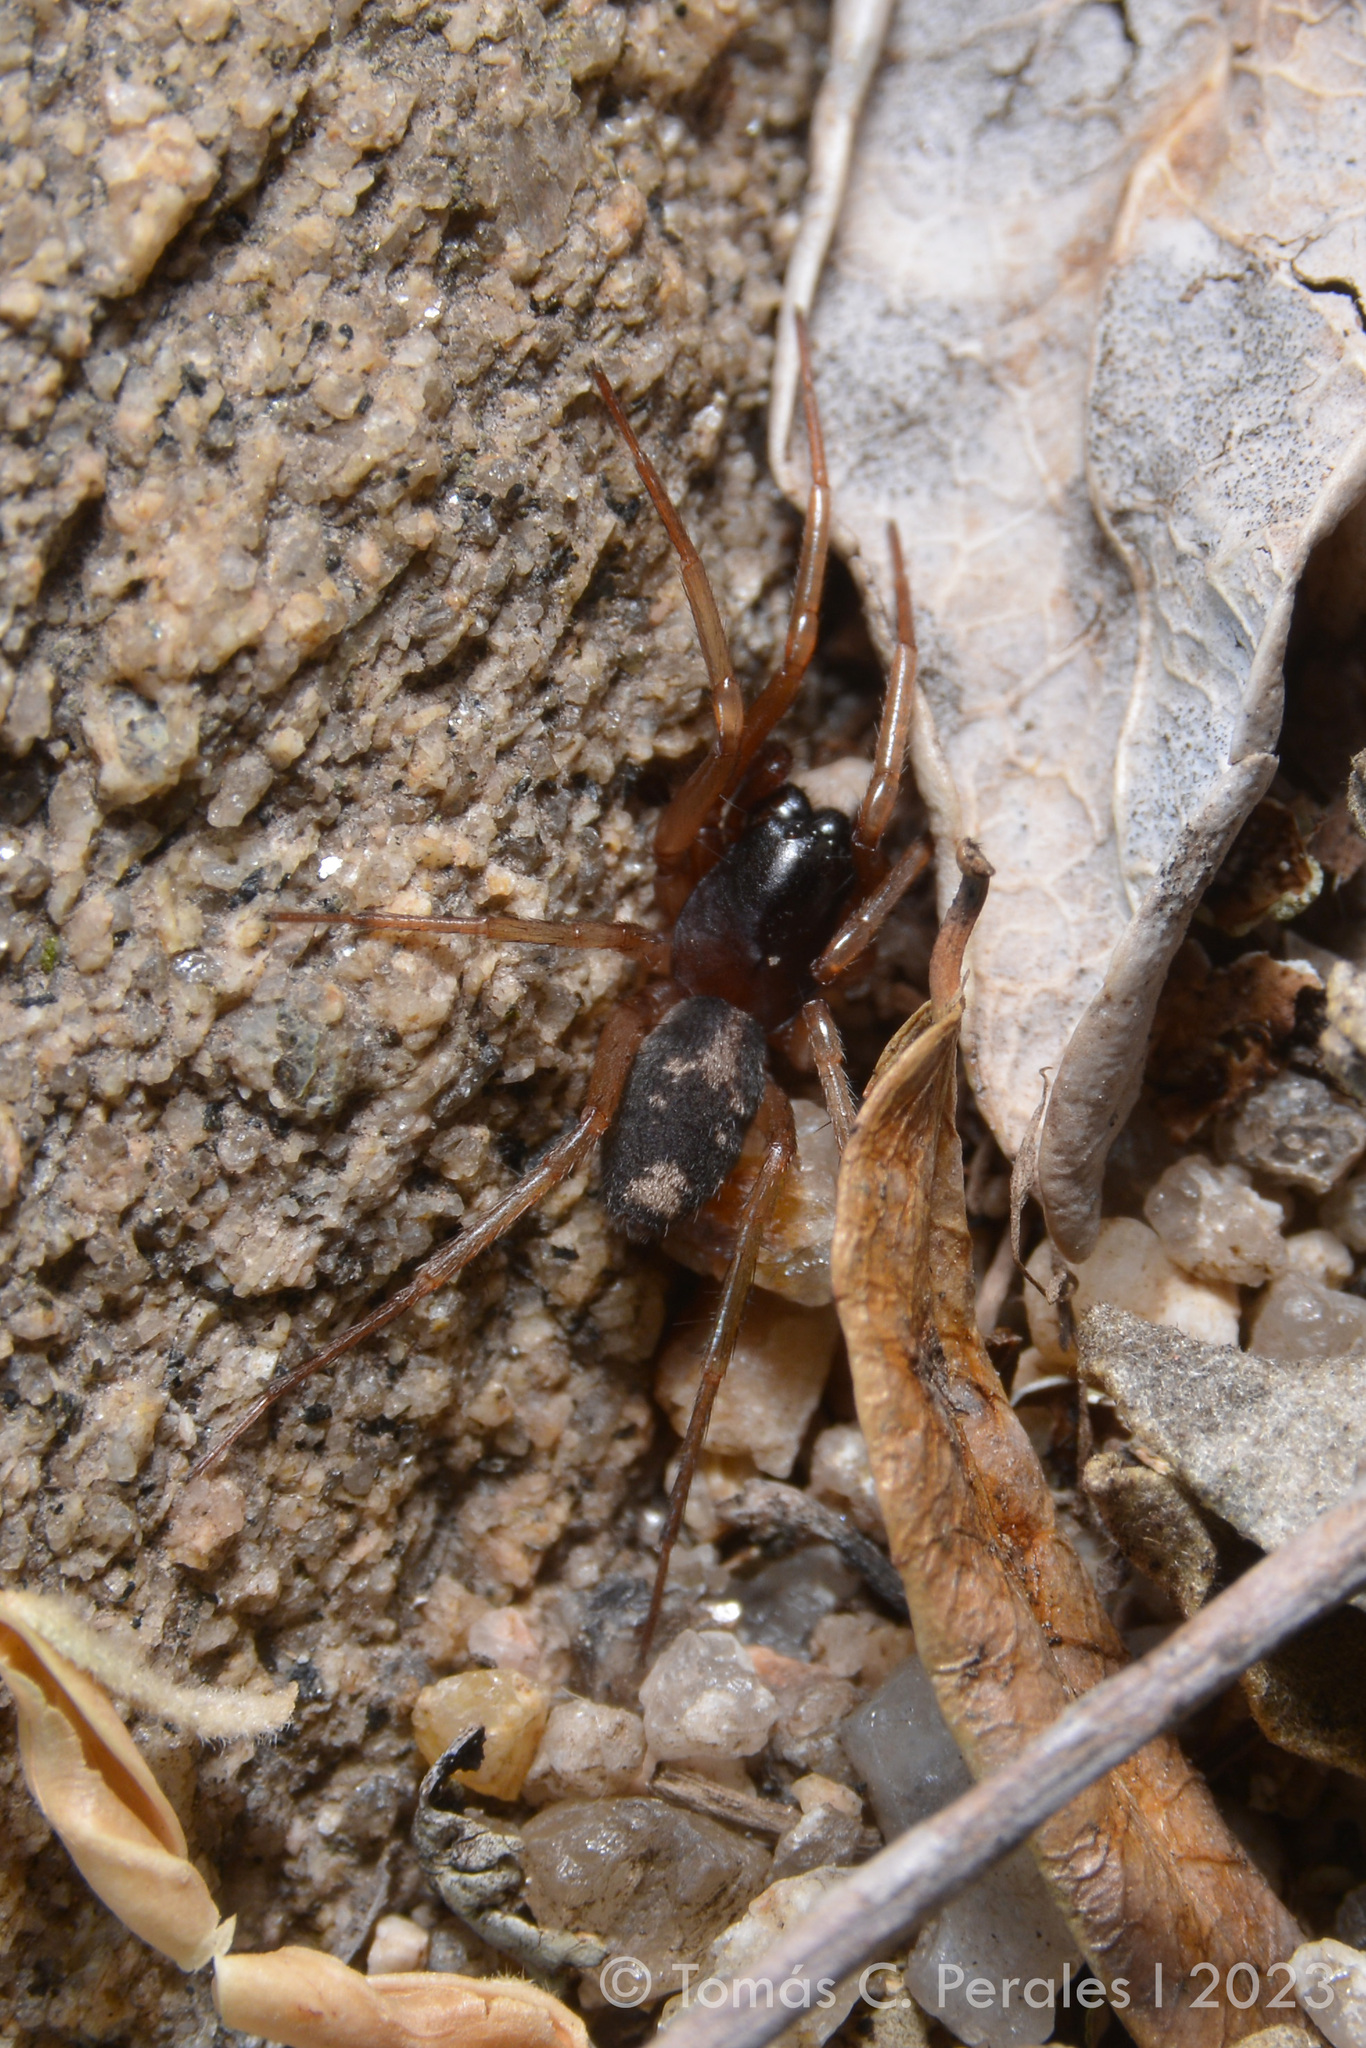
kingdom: Animalia
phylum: Arthropoda
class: Arachnida
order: Araneae
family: Corinnidae
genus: Falconina
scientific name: Falconina gracilis
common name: Antmimic spider
